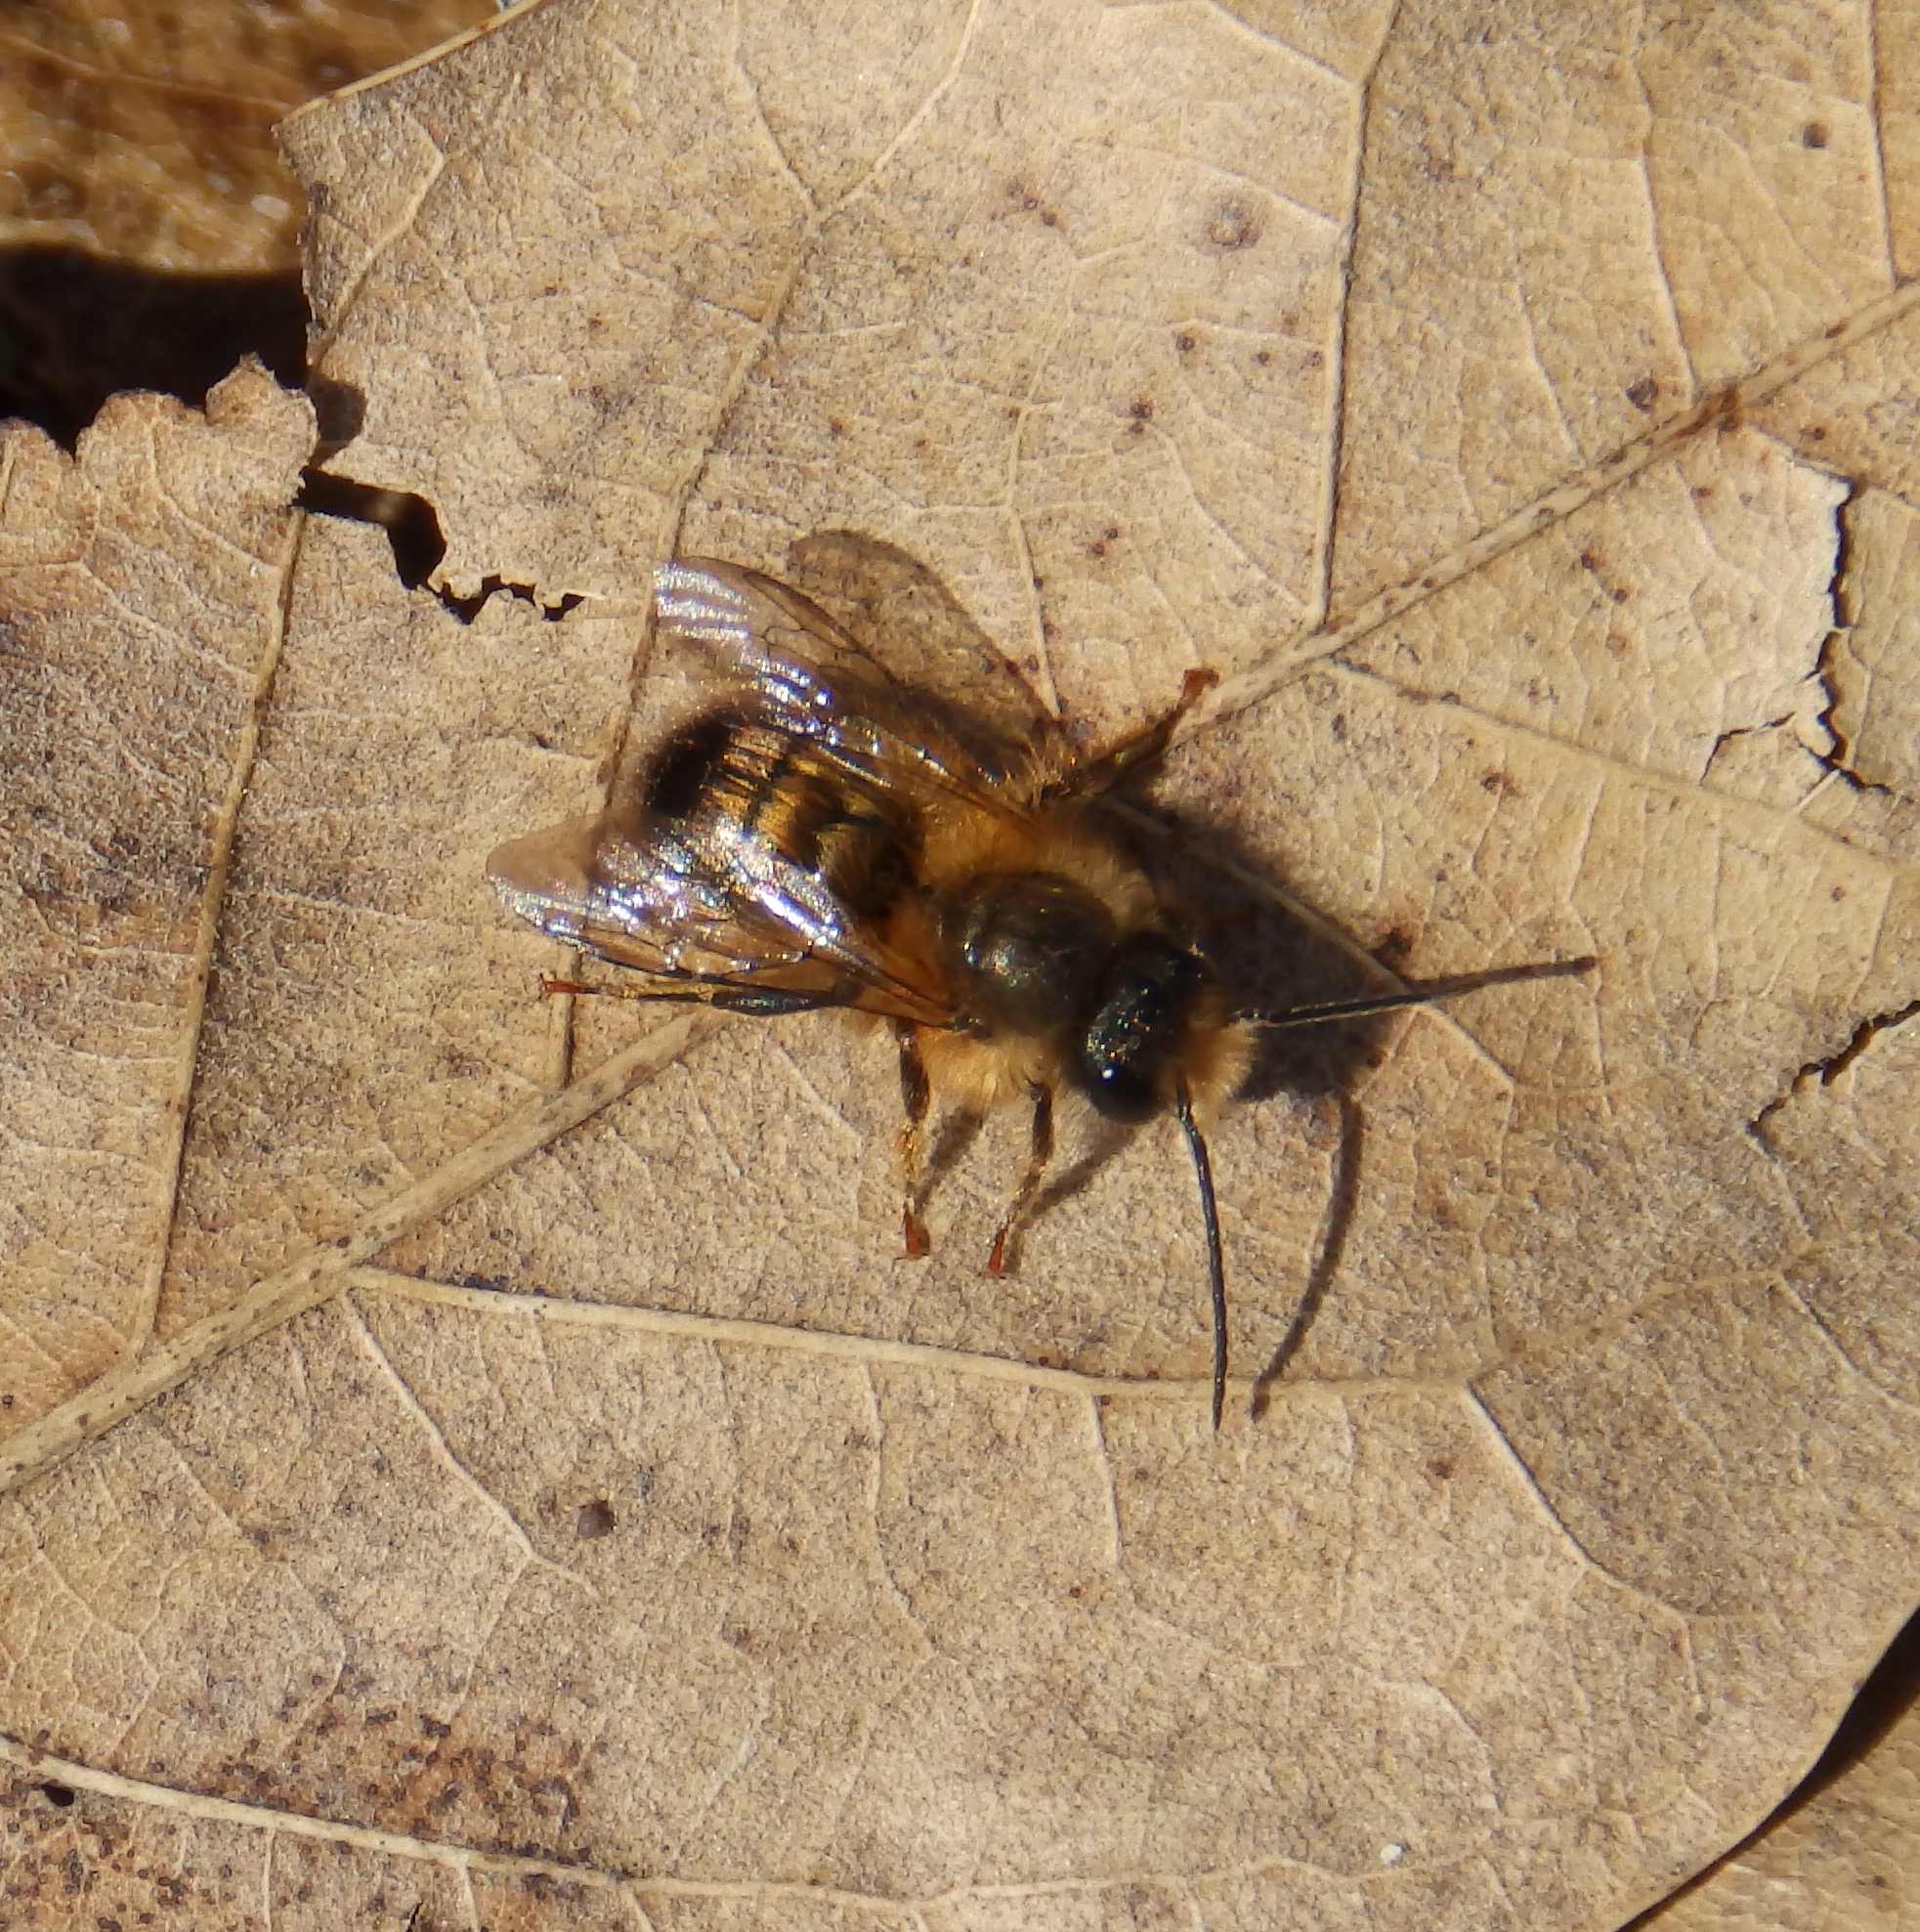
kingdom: Animalia
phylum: Arthropoda
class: Insecta
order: Hymenoptera
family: Megachilidae
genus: Osmia
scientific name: Osmia taurus
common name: Taurus mason bee
